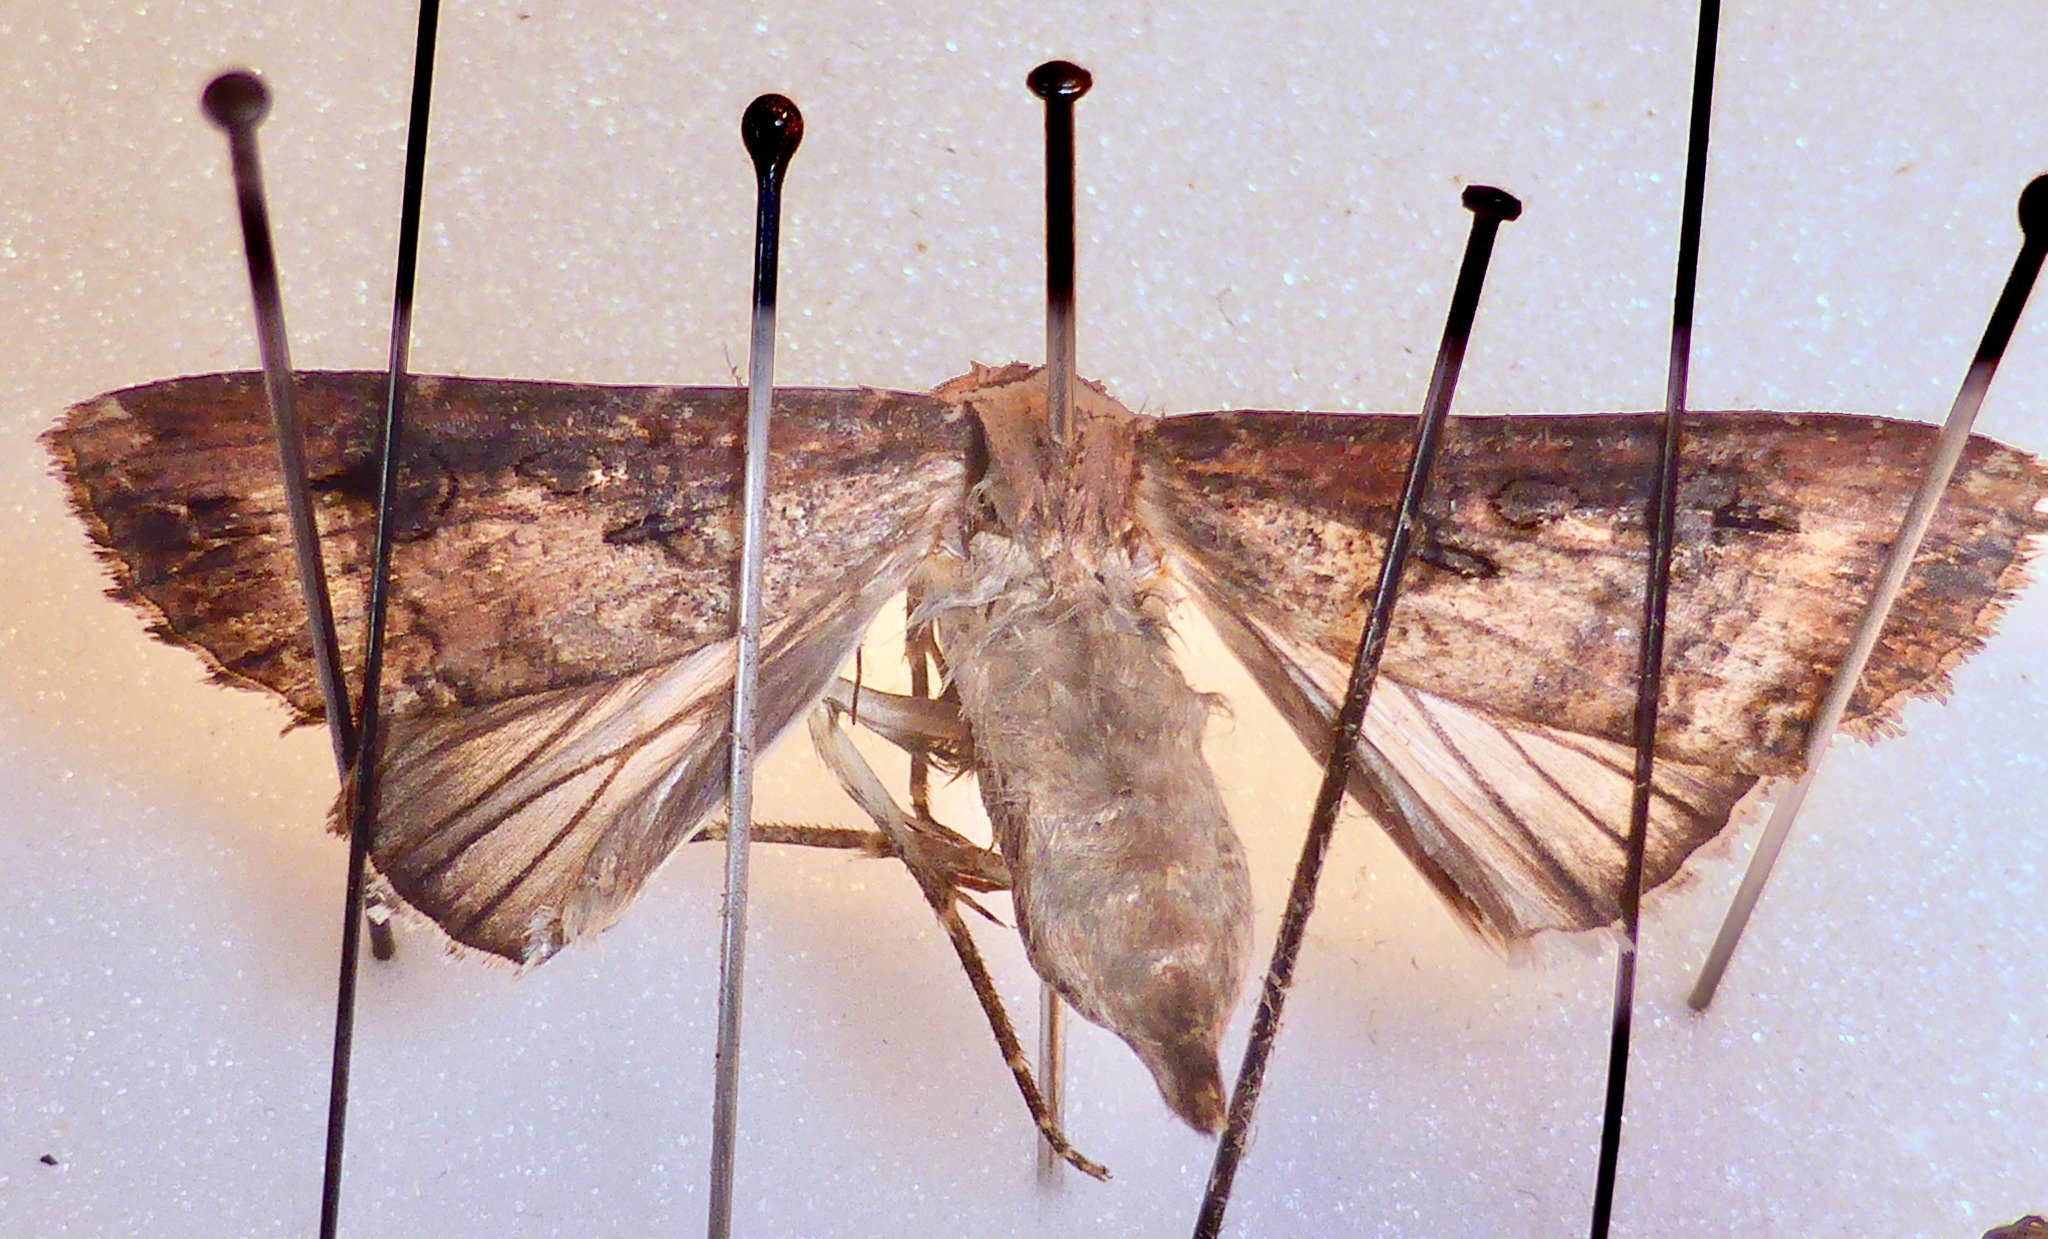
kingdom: Animalia
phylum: Arthropoda
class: Insecta
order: Lepidoptera
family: Noctuidae
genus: Agrotis
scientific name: Agrotis ipsilon
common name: Dark sword-grass
